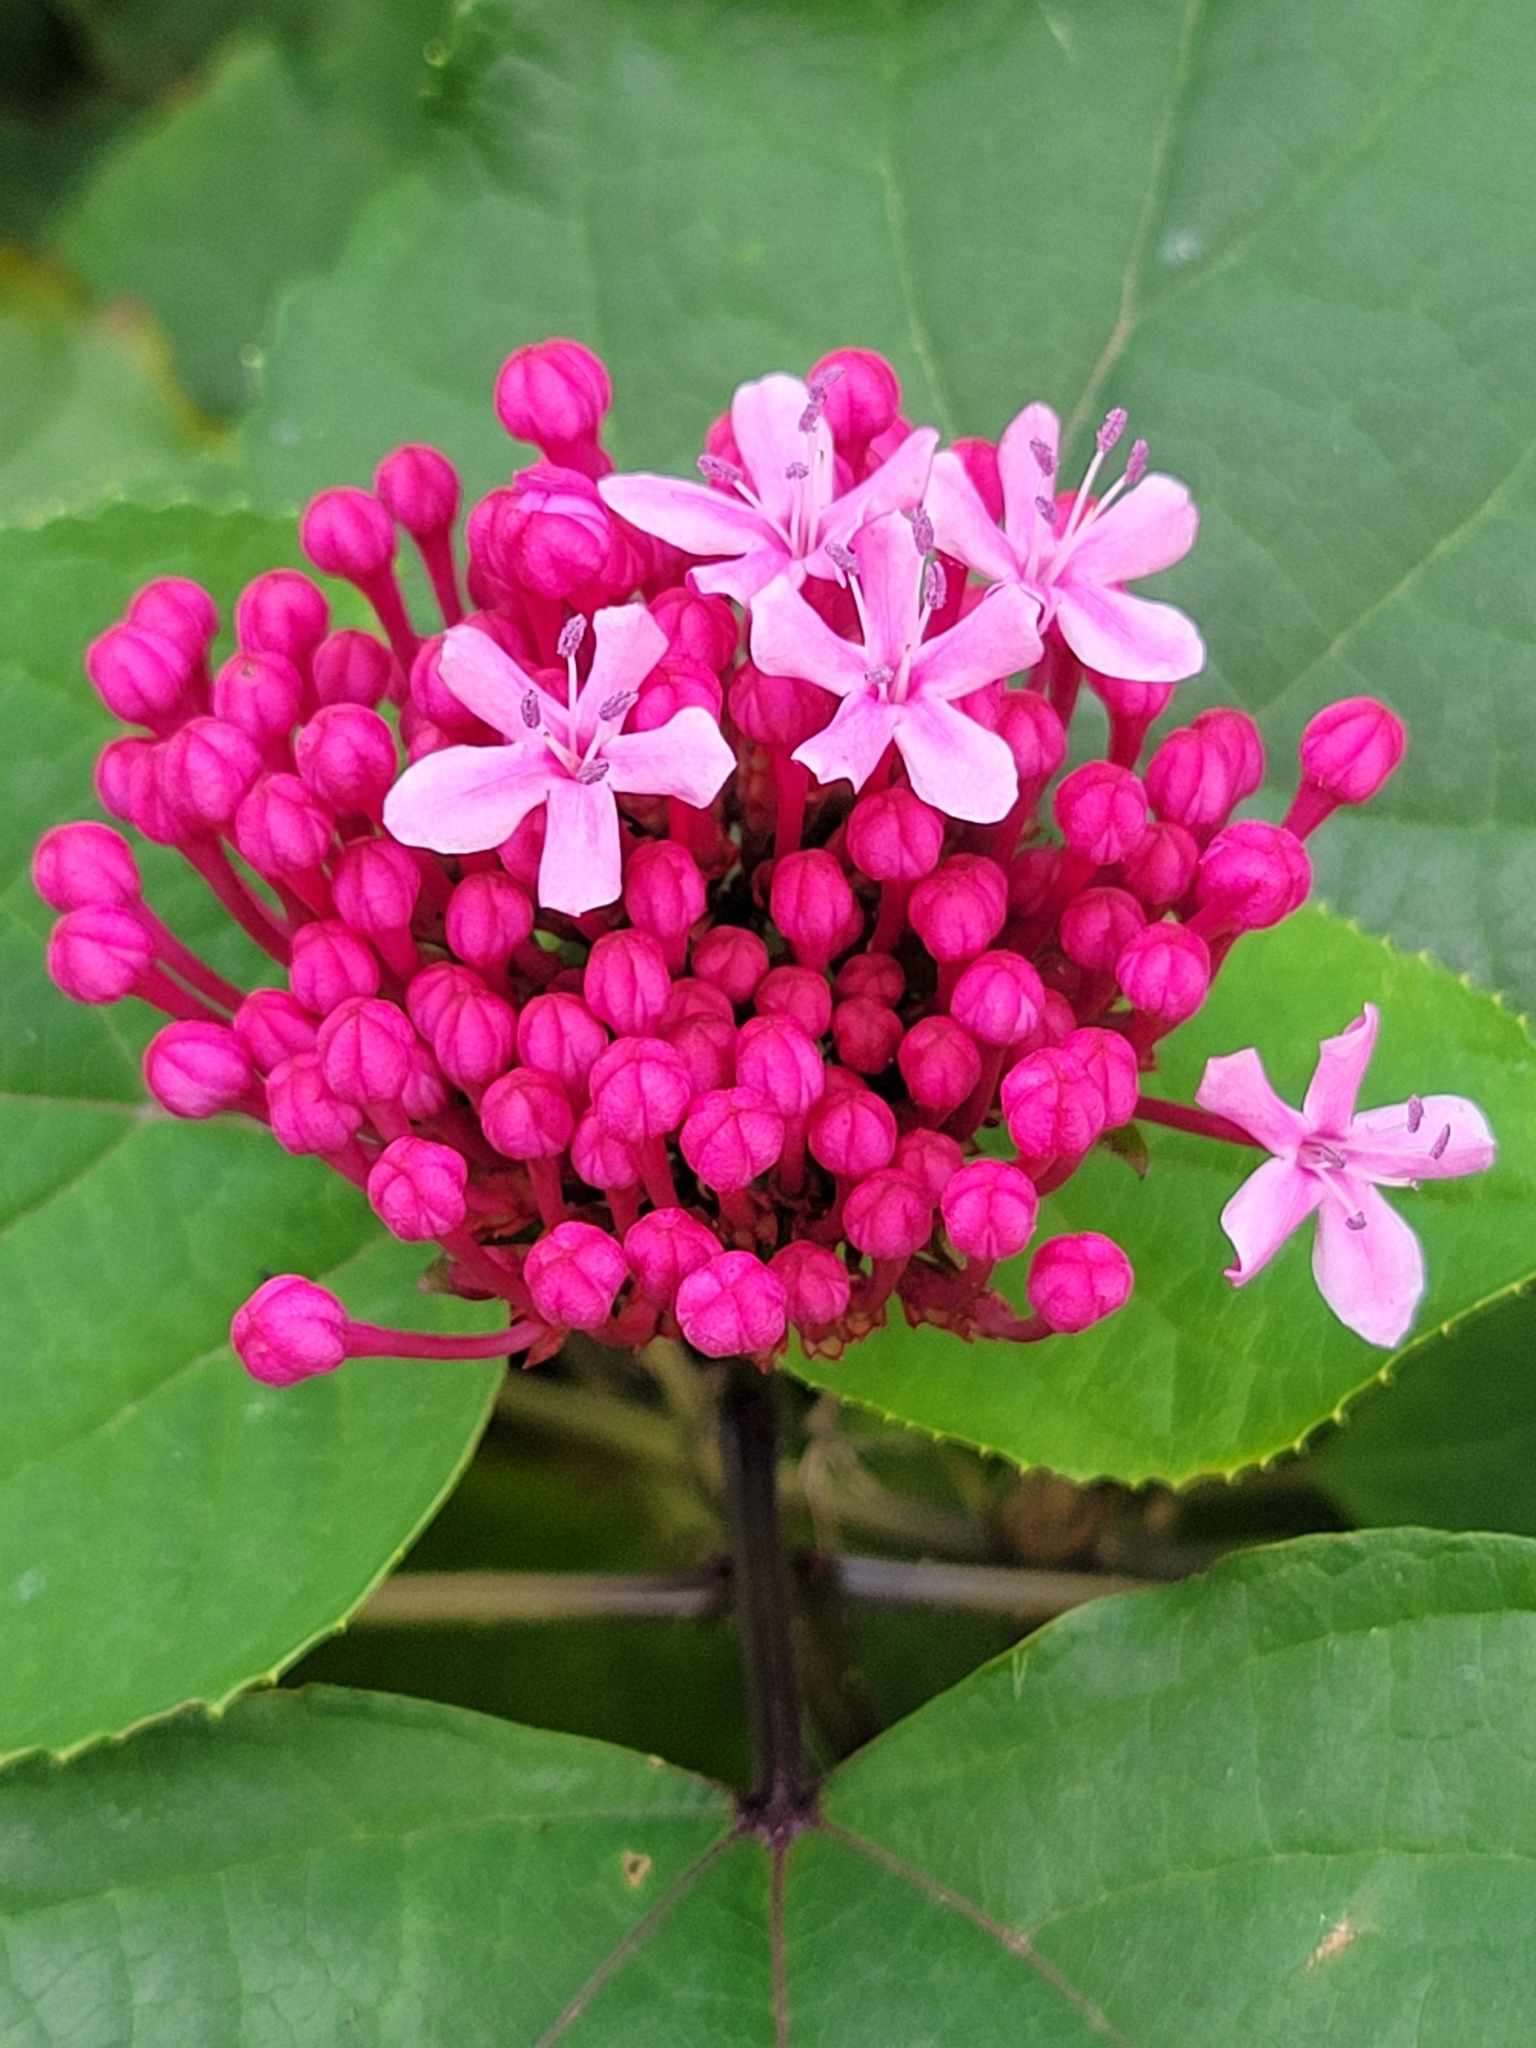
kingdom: Plantae
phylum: Tracheophyta
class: Magnoliopsida
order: Lamiales
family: Lamiaceae
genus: Clerodendrum
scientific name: Clerodendrum bungei
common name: Rose glorybower
